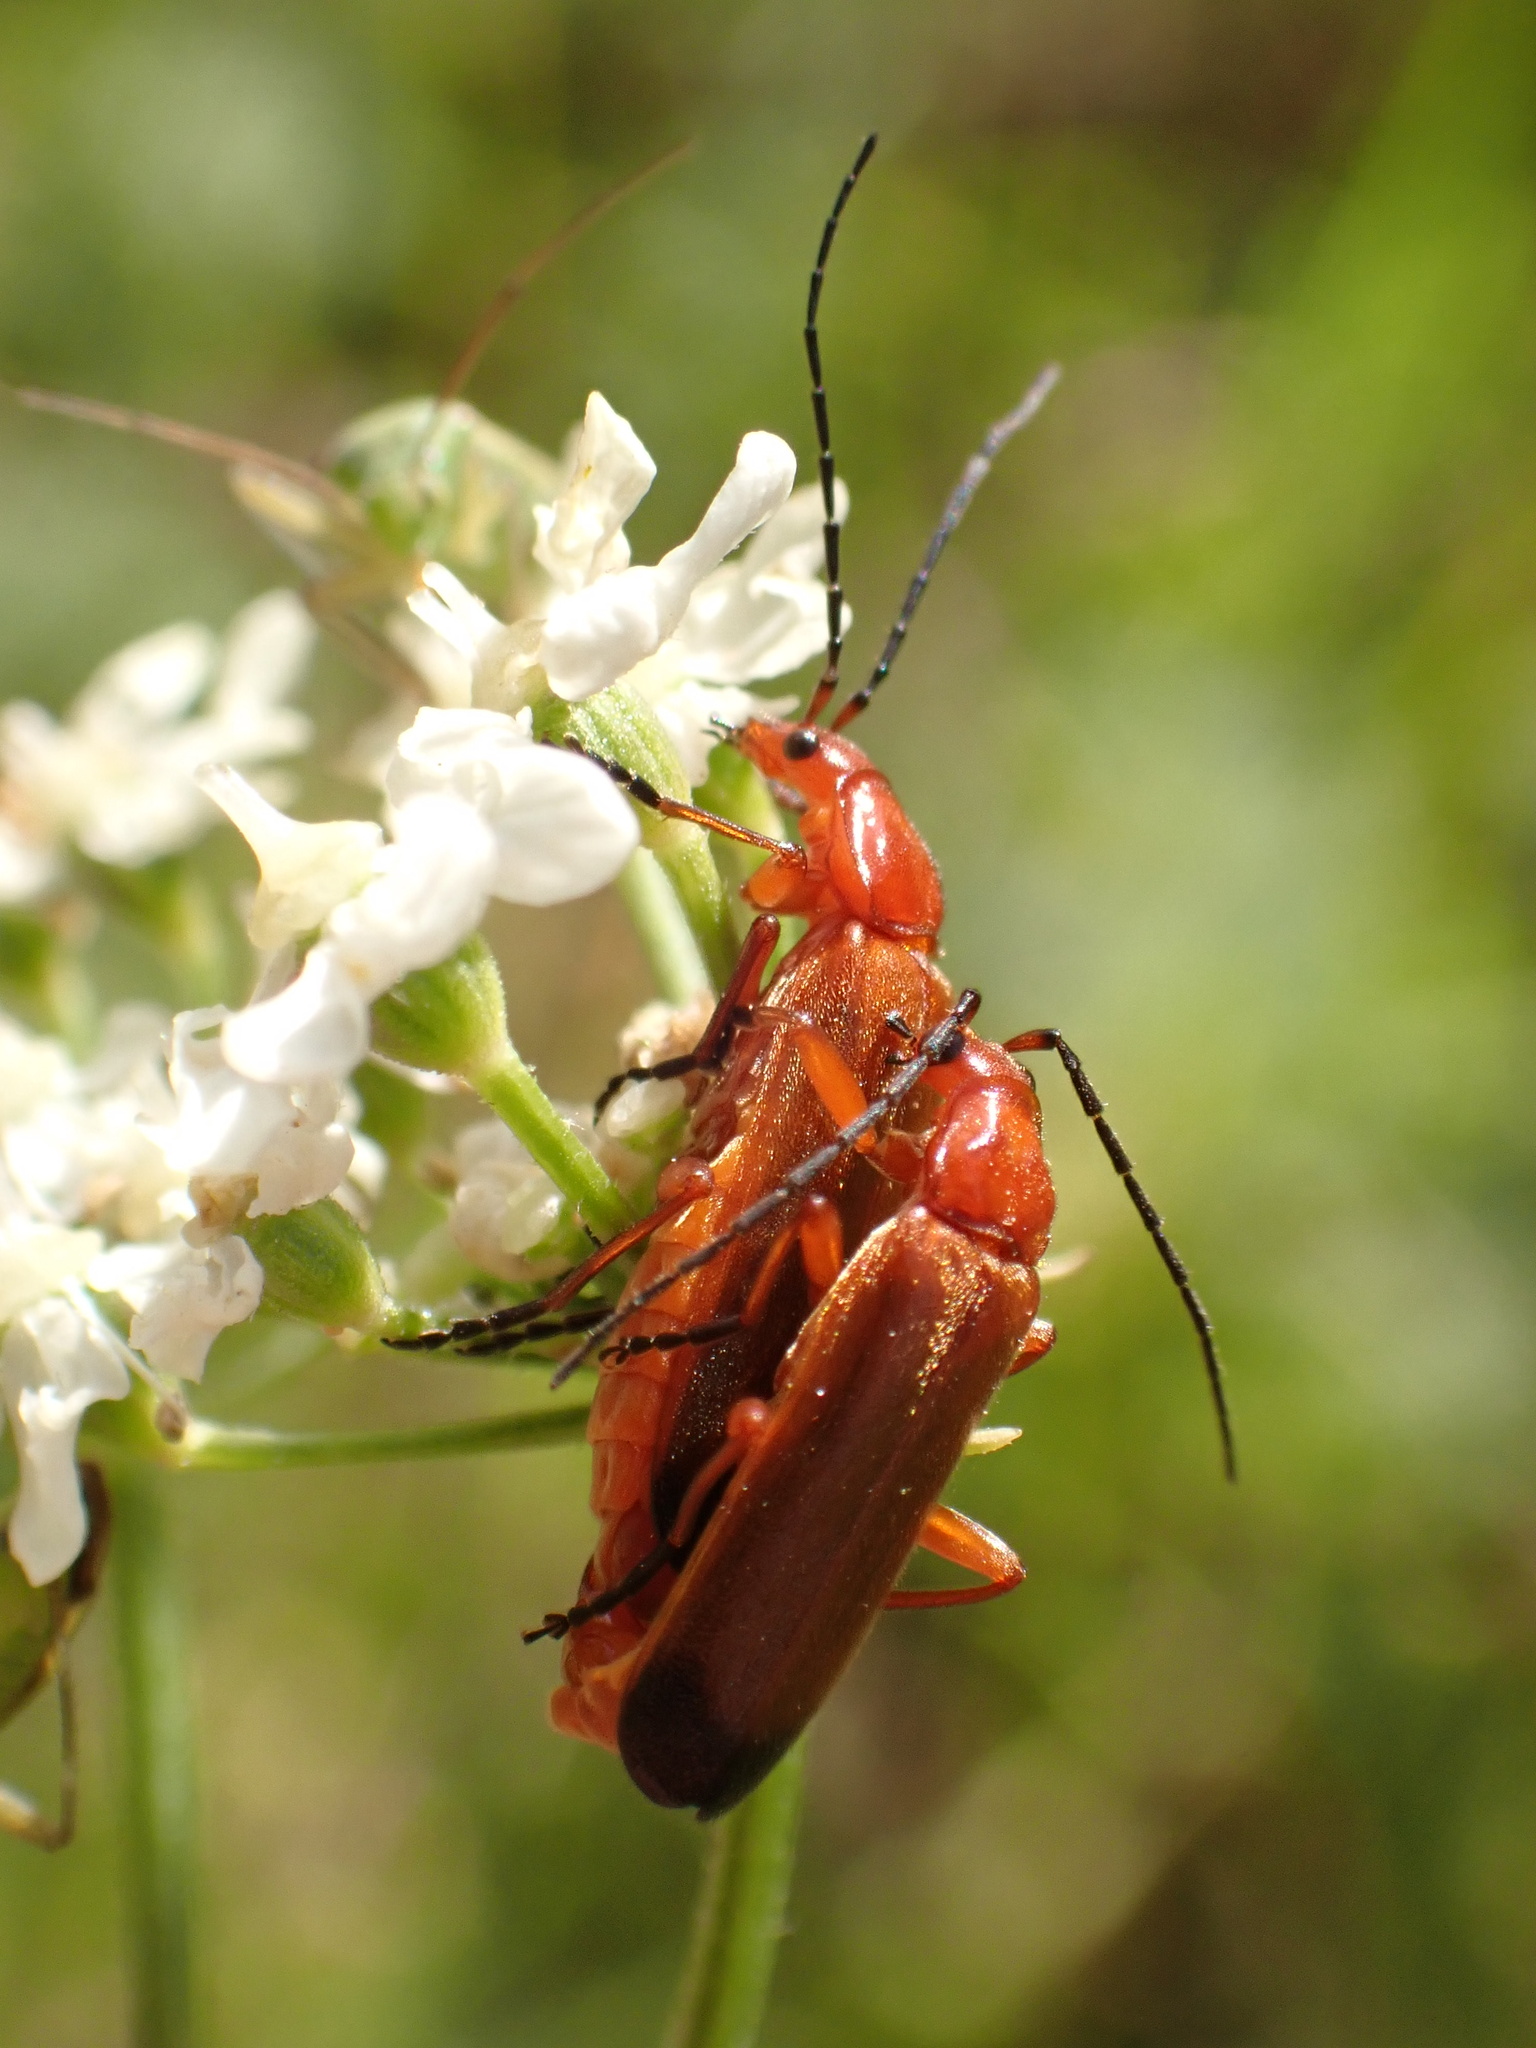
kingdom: Animalia
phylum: Arthropoda
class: Insecta
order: Coleoptera
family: Cantharidae
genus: Rhagonycha
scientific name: Rhagonycha fulva
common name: Common red soldier beetle
